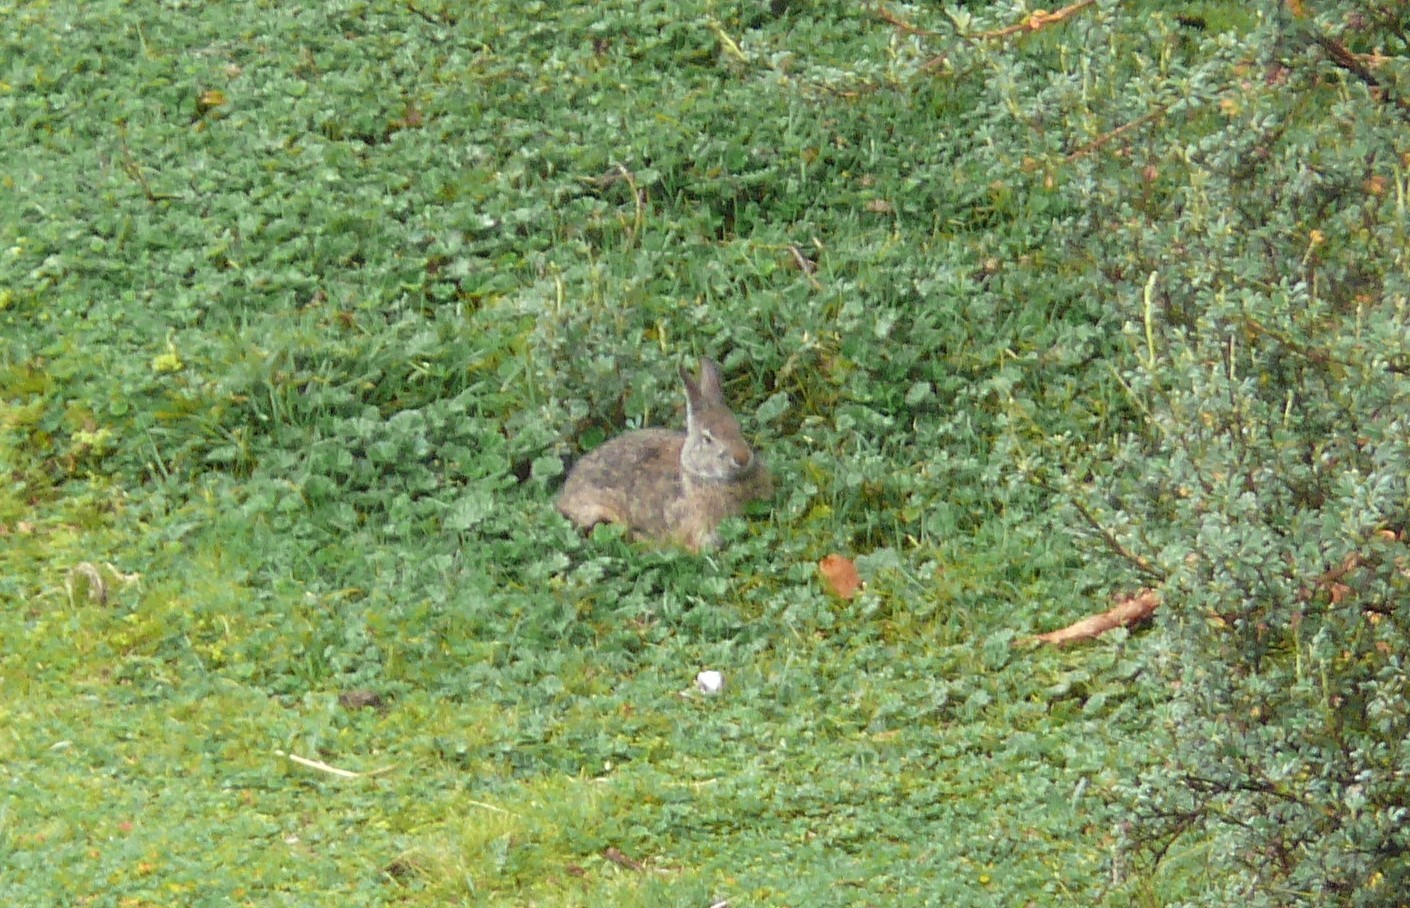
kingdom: Animalia
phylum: Chordata
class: Mammalia
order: Lagomorpha
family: Leporidae
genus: Sylvilagus
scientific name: Sylvilagus andinus
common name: Andean cottontail
